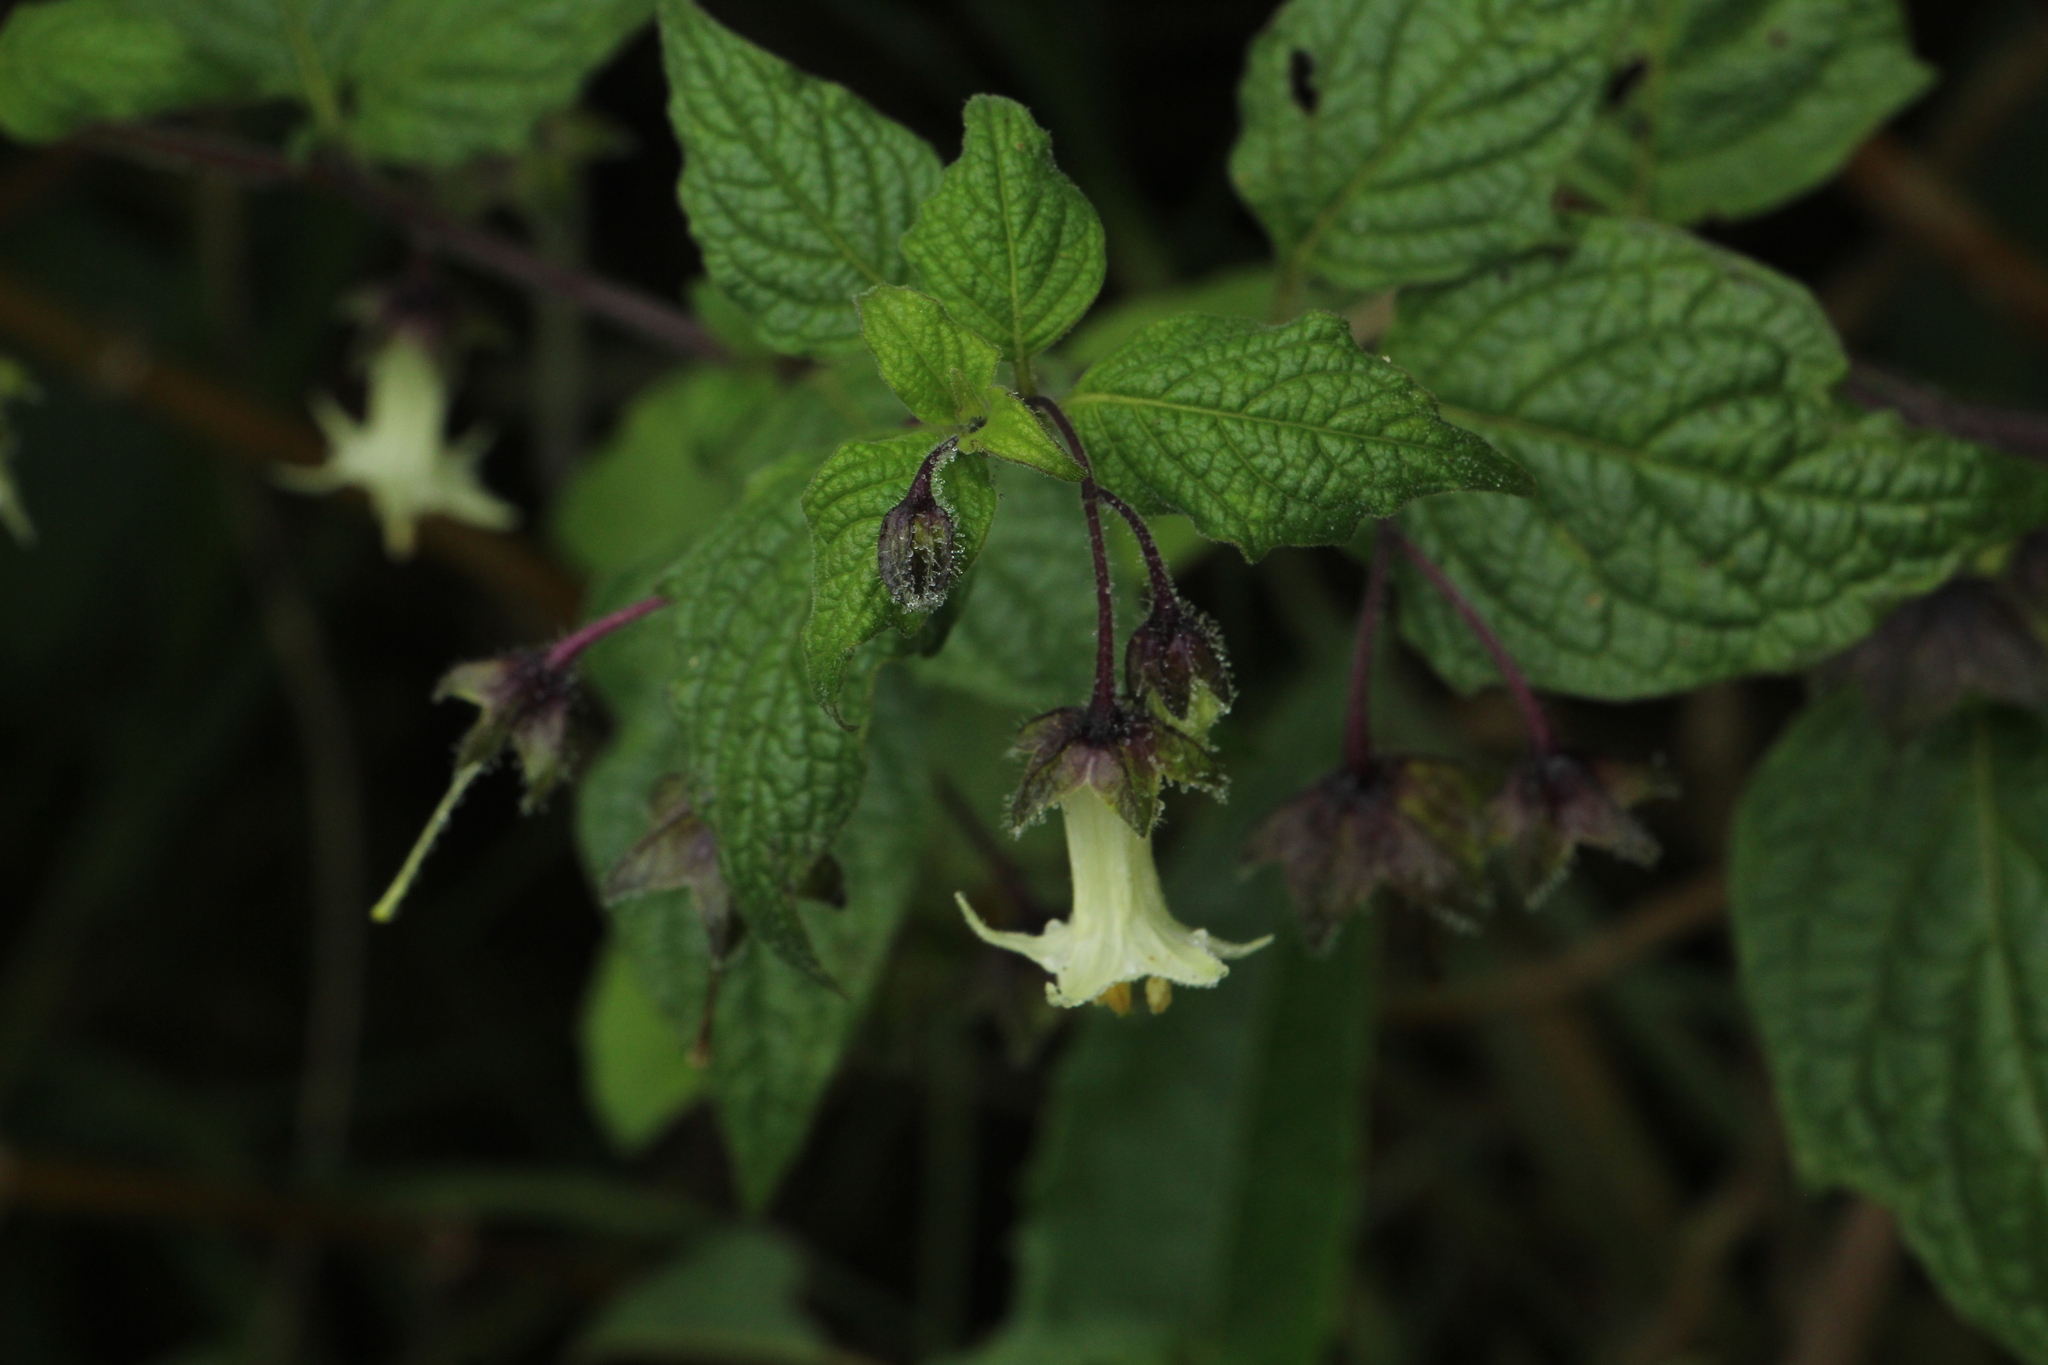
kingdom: Plantae
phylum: Tracheophyta
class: Magnoliopsida
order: Solanales
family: Solanaceae
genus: Jaltomata
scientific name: Jaltomata viridiflora
